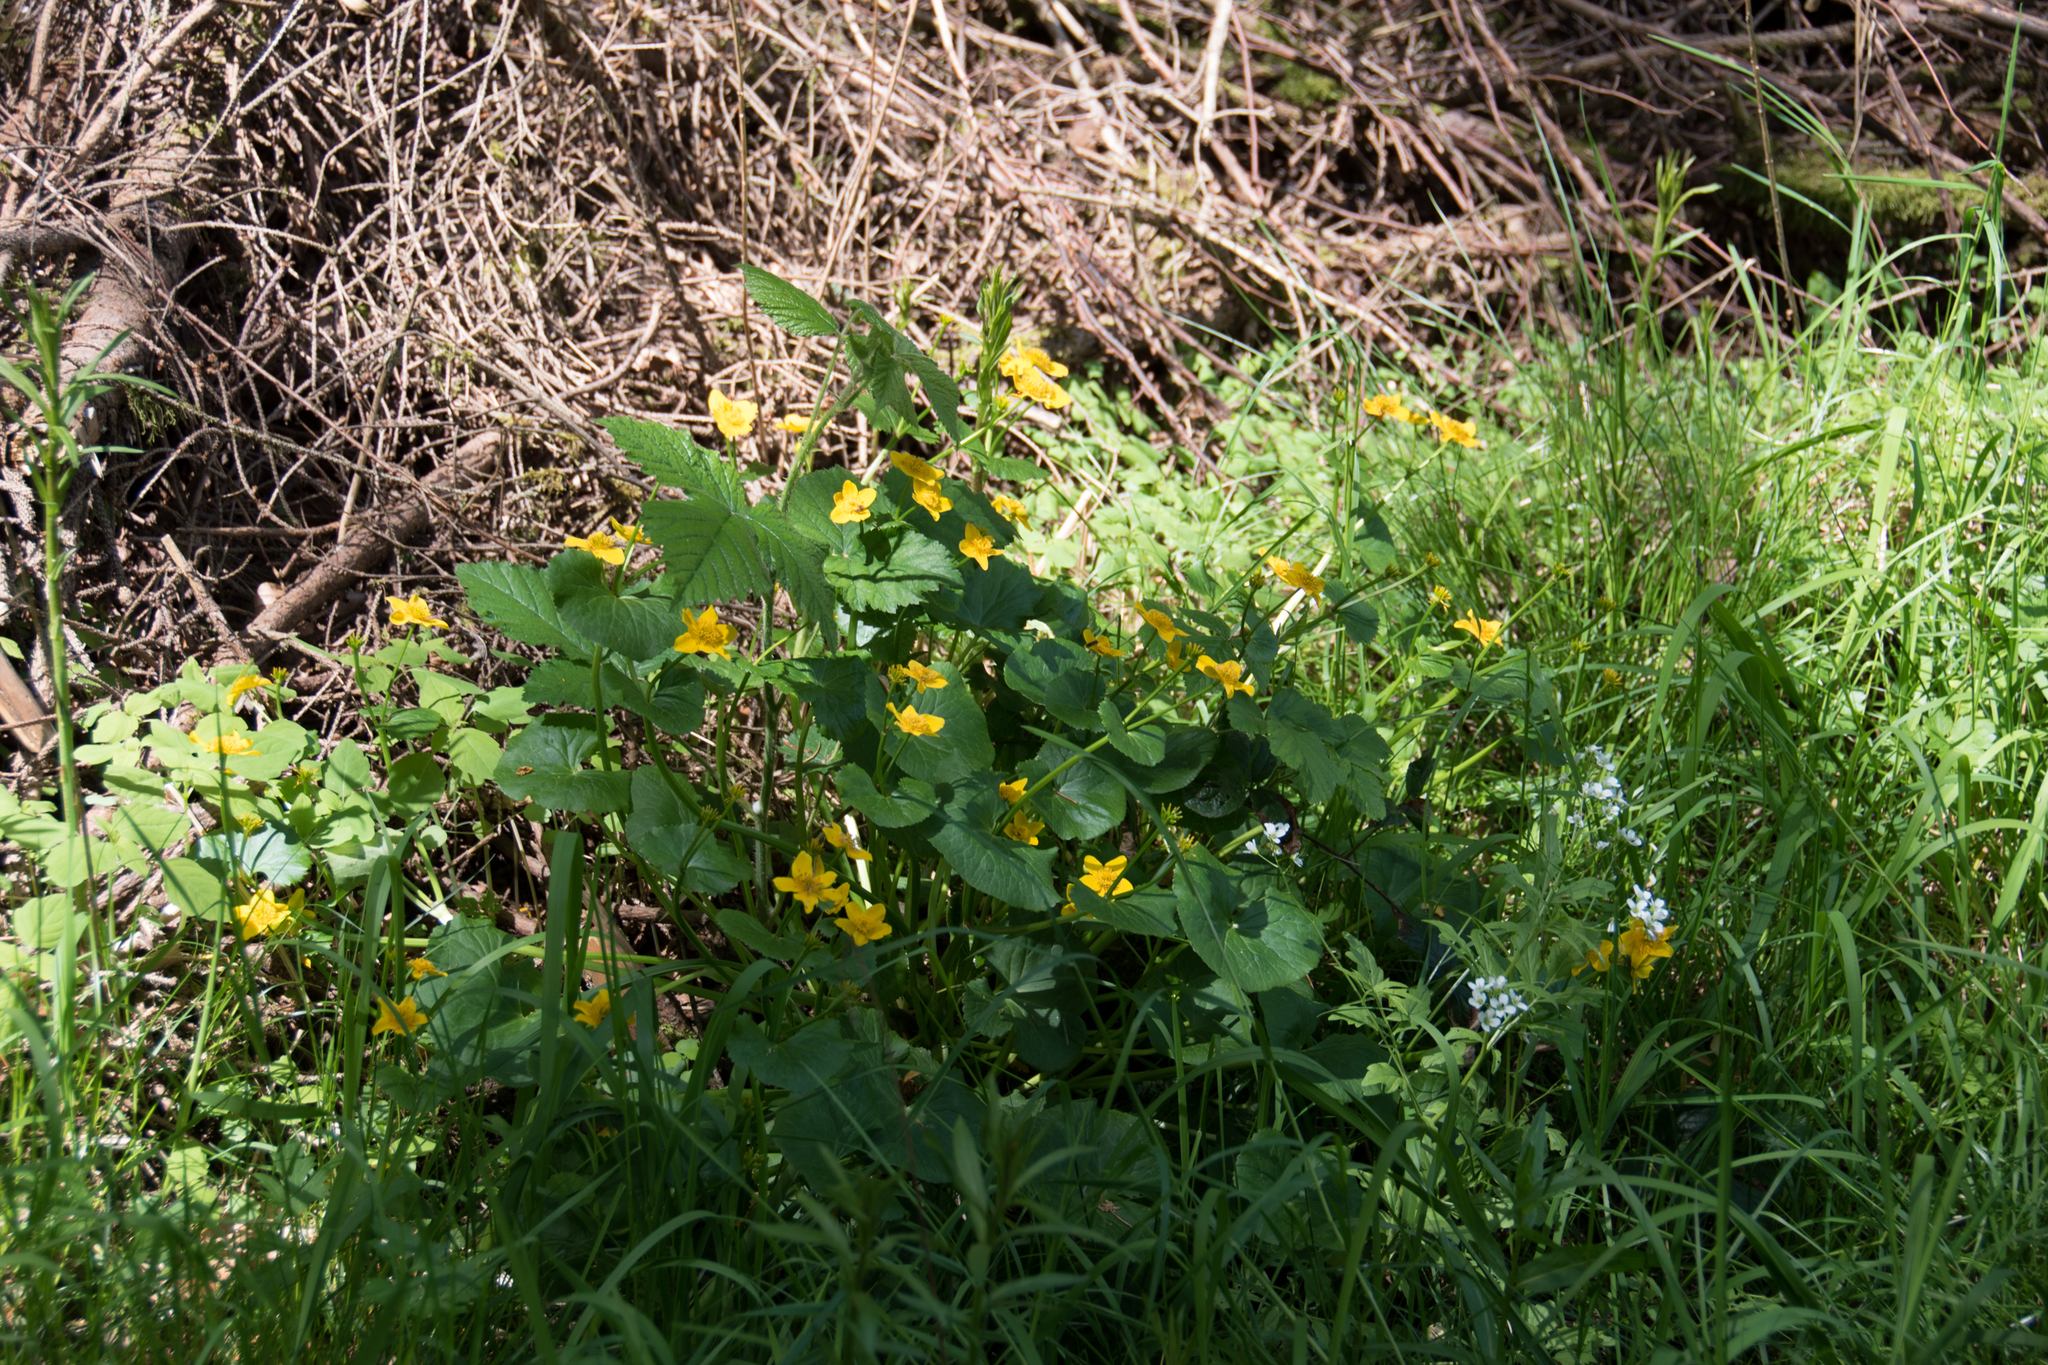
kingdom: Plantae
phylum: Tracheophyta
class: Magnoliopsida
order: Ranunculales
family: Ranunculaceae
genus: Caltha
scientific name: Caltha palustris
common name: Marsh marigold
